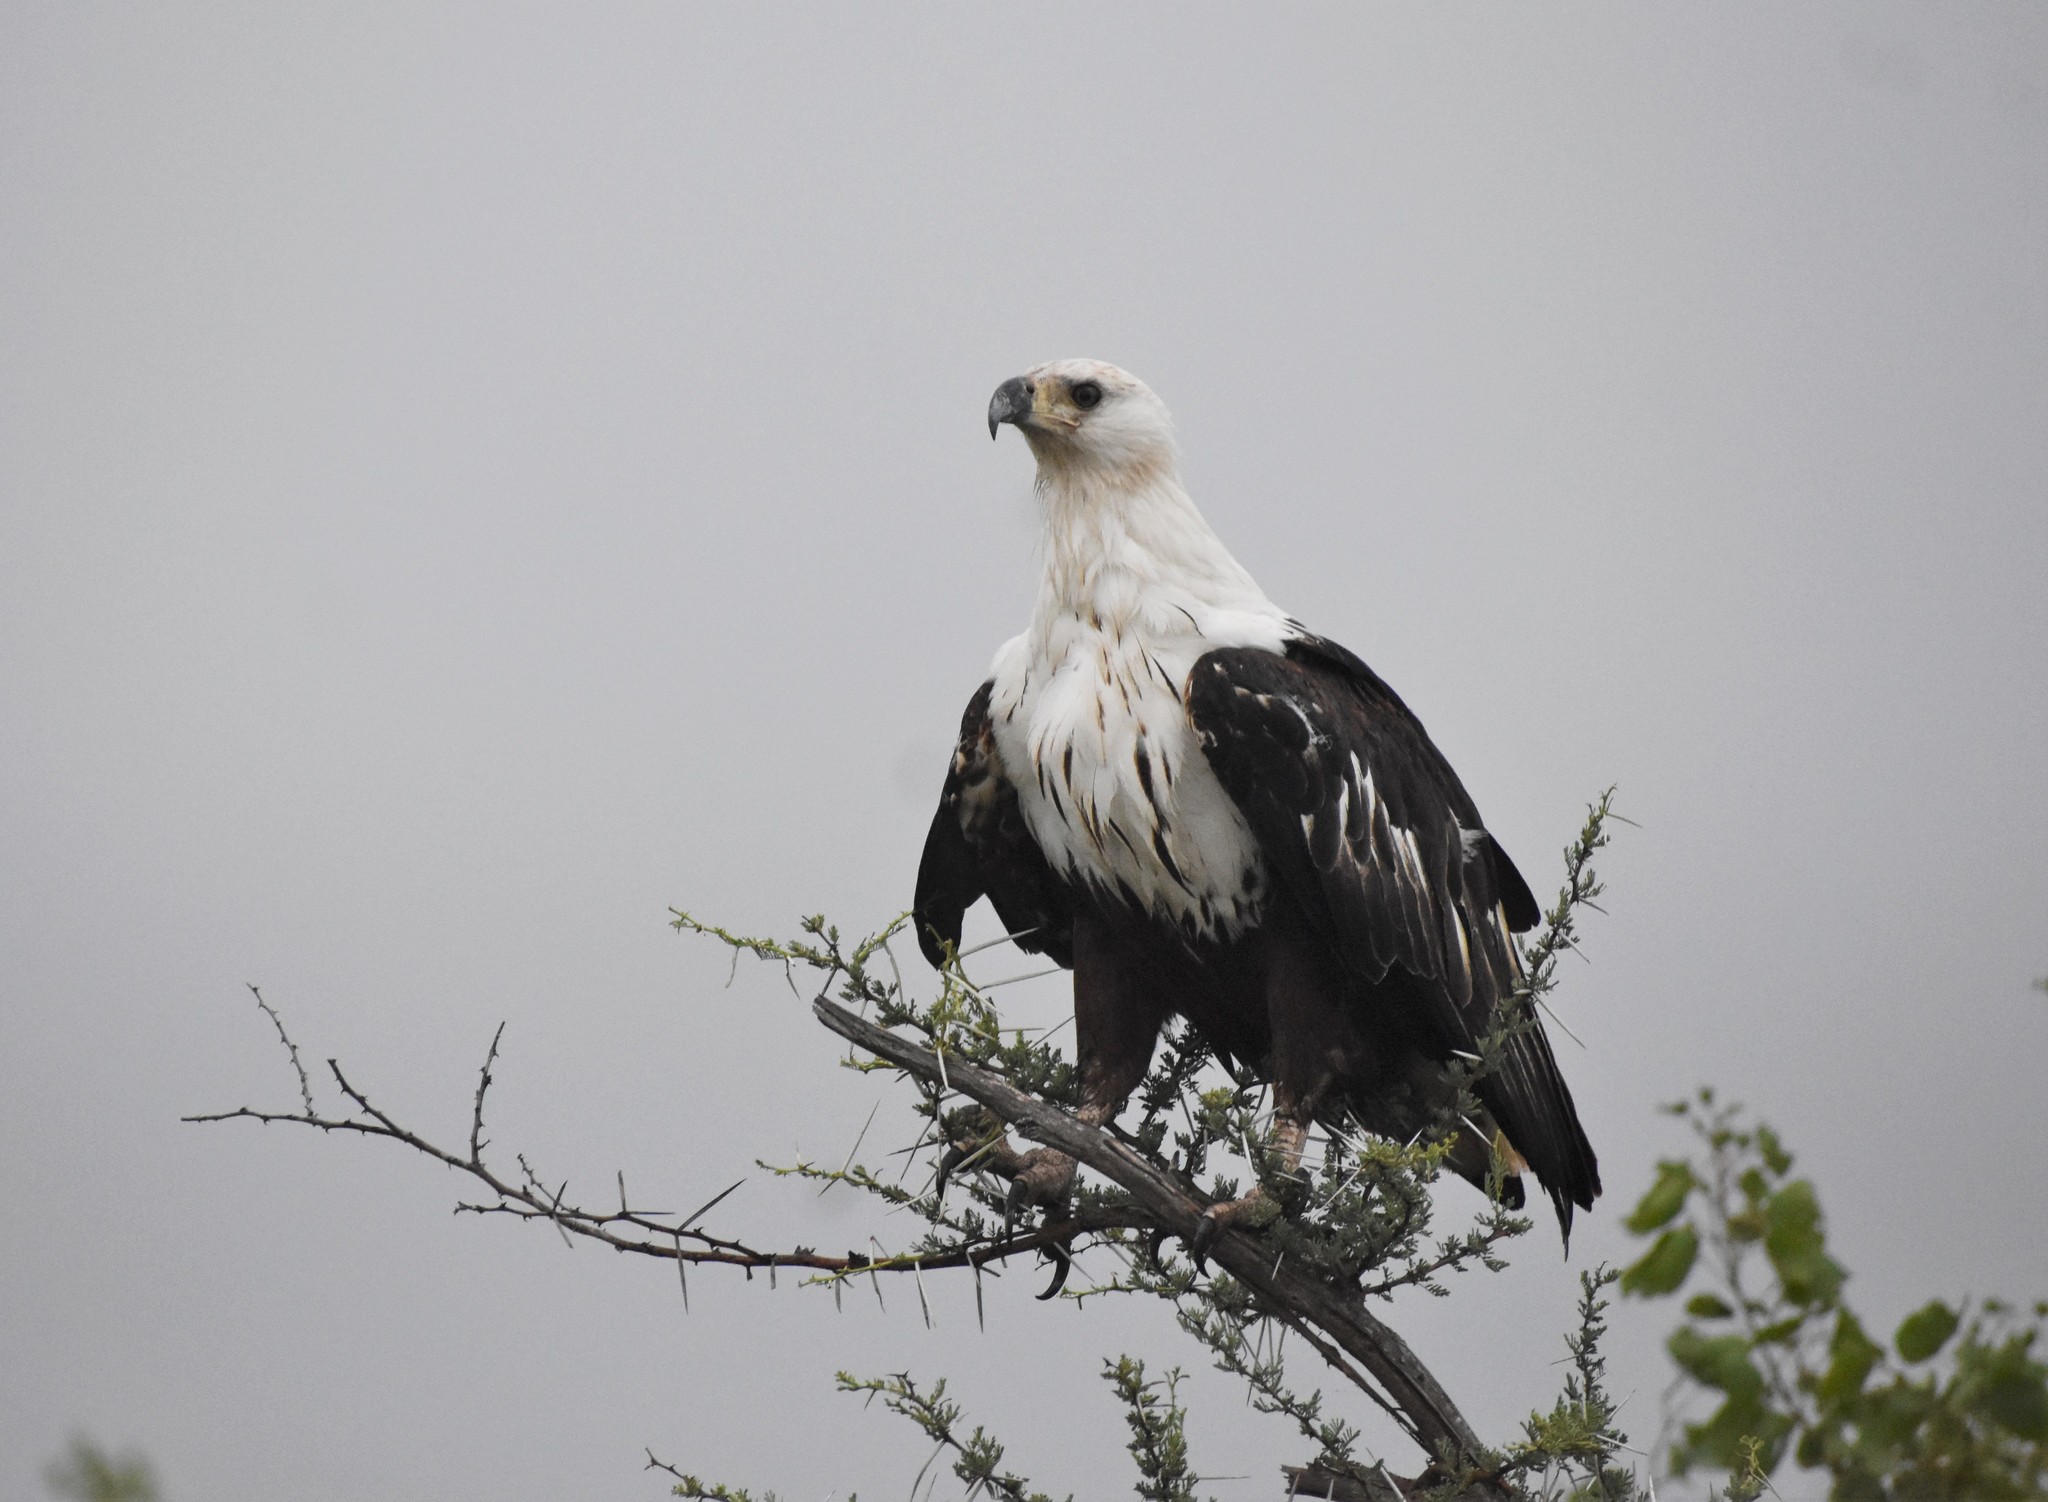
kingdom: Animalia
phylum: Chordata
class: Aves
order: Accipitriformes
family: Accipitridae
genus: Haliaeetus
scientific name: Haliaeetus vocifer
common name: African fish eagle
